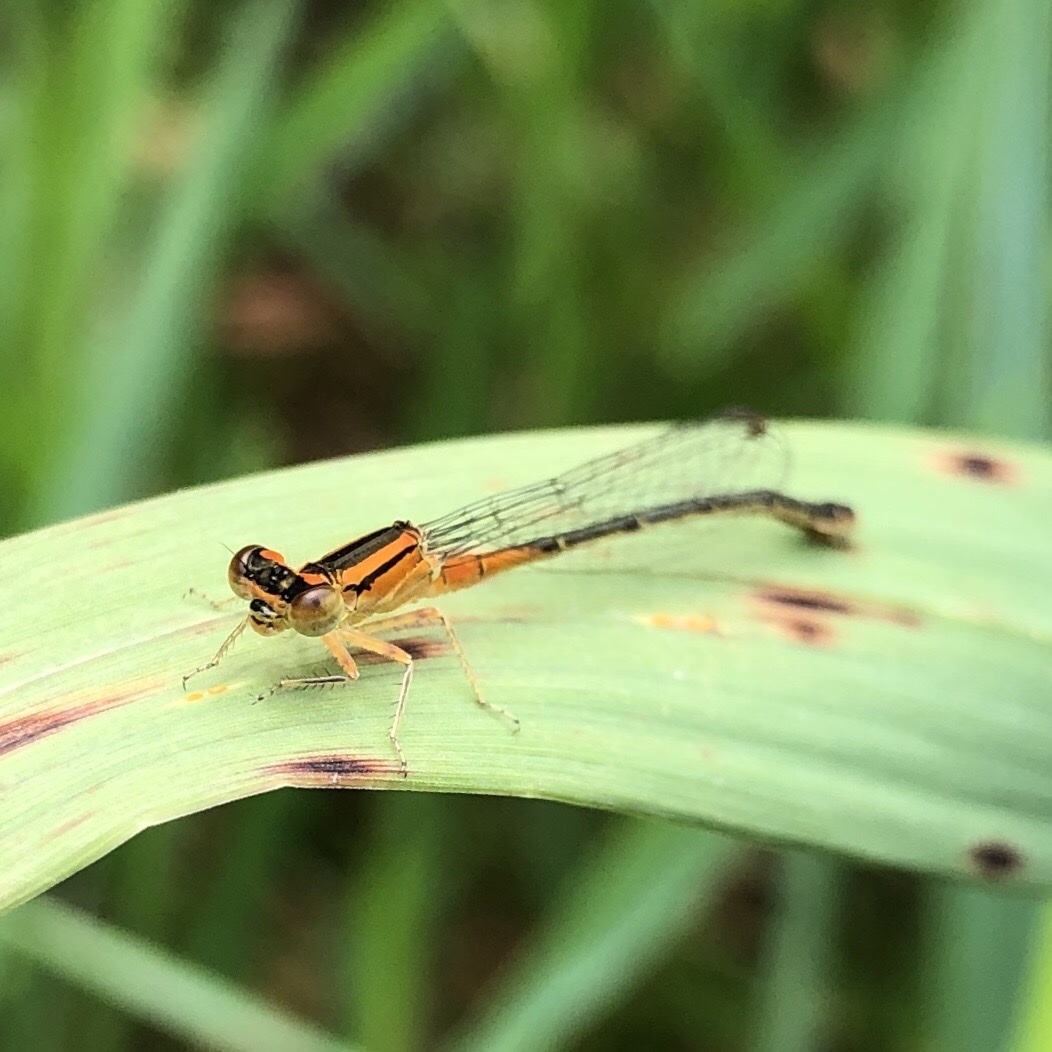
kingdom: Animalia
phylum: Arthropoda
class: Insecta
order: Odonata
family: Coenagrionidae
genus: Ischnura
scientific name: Ischnura verticalis
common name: Eastern forktail
